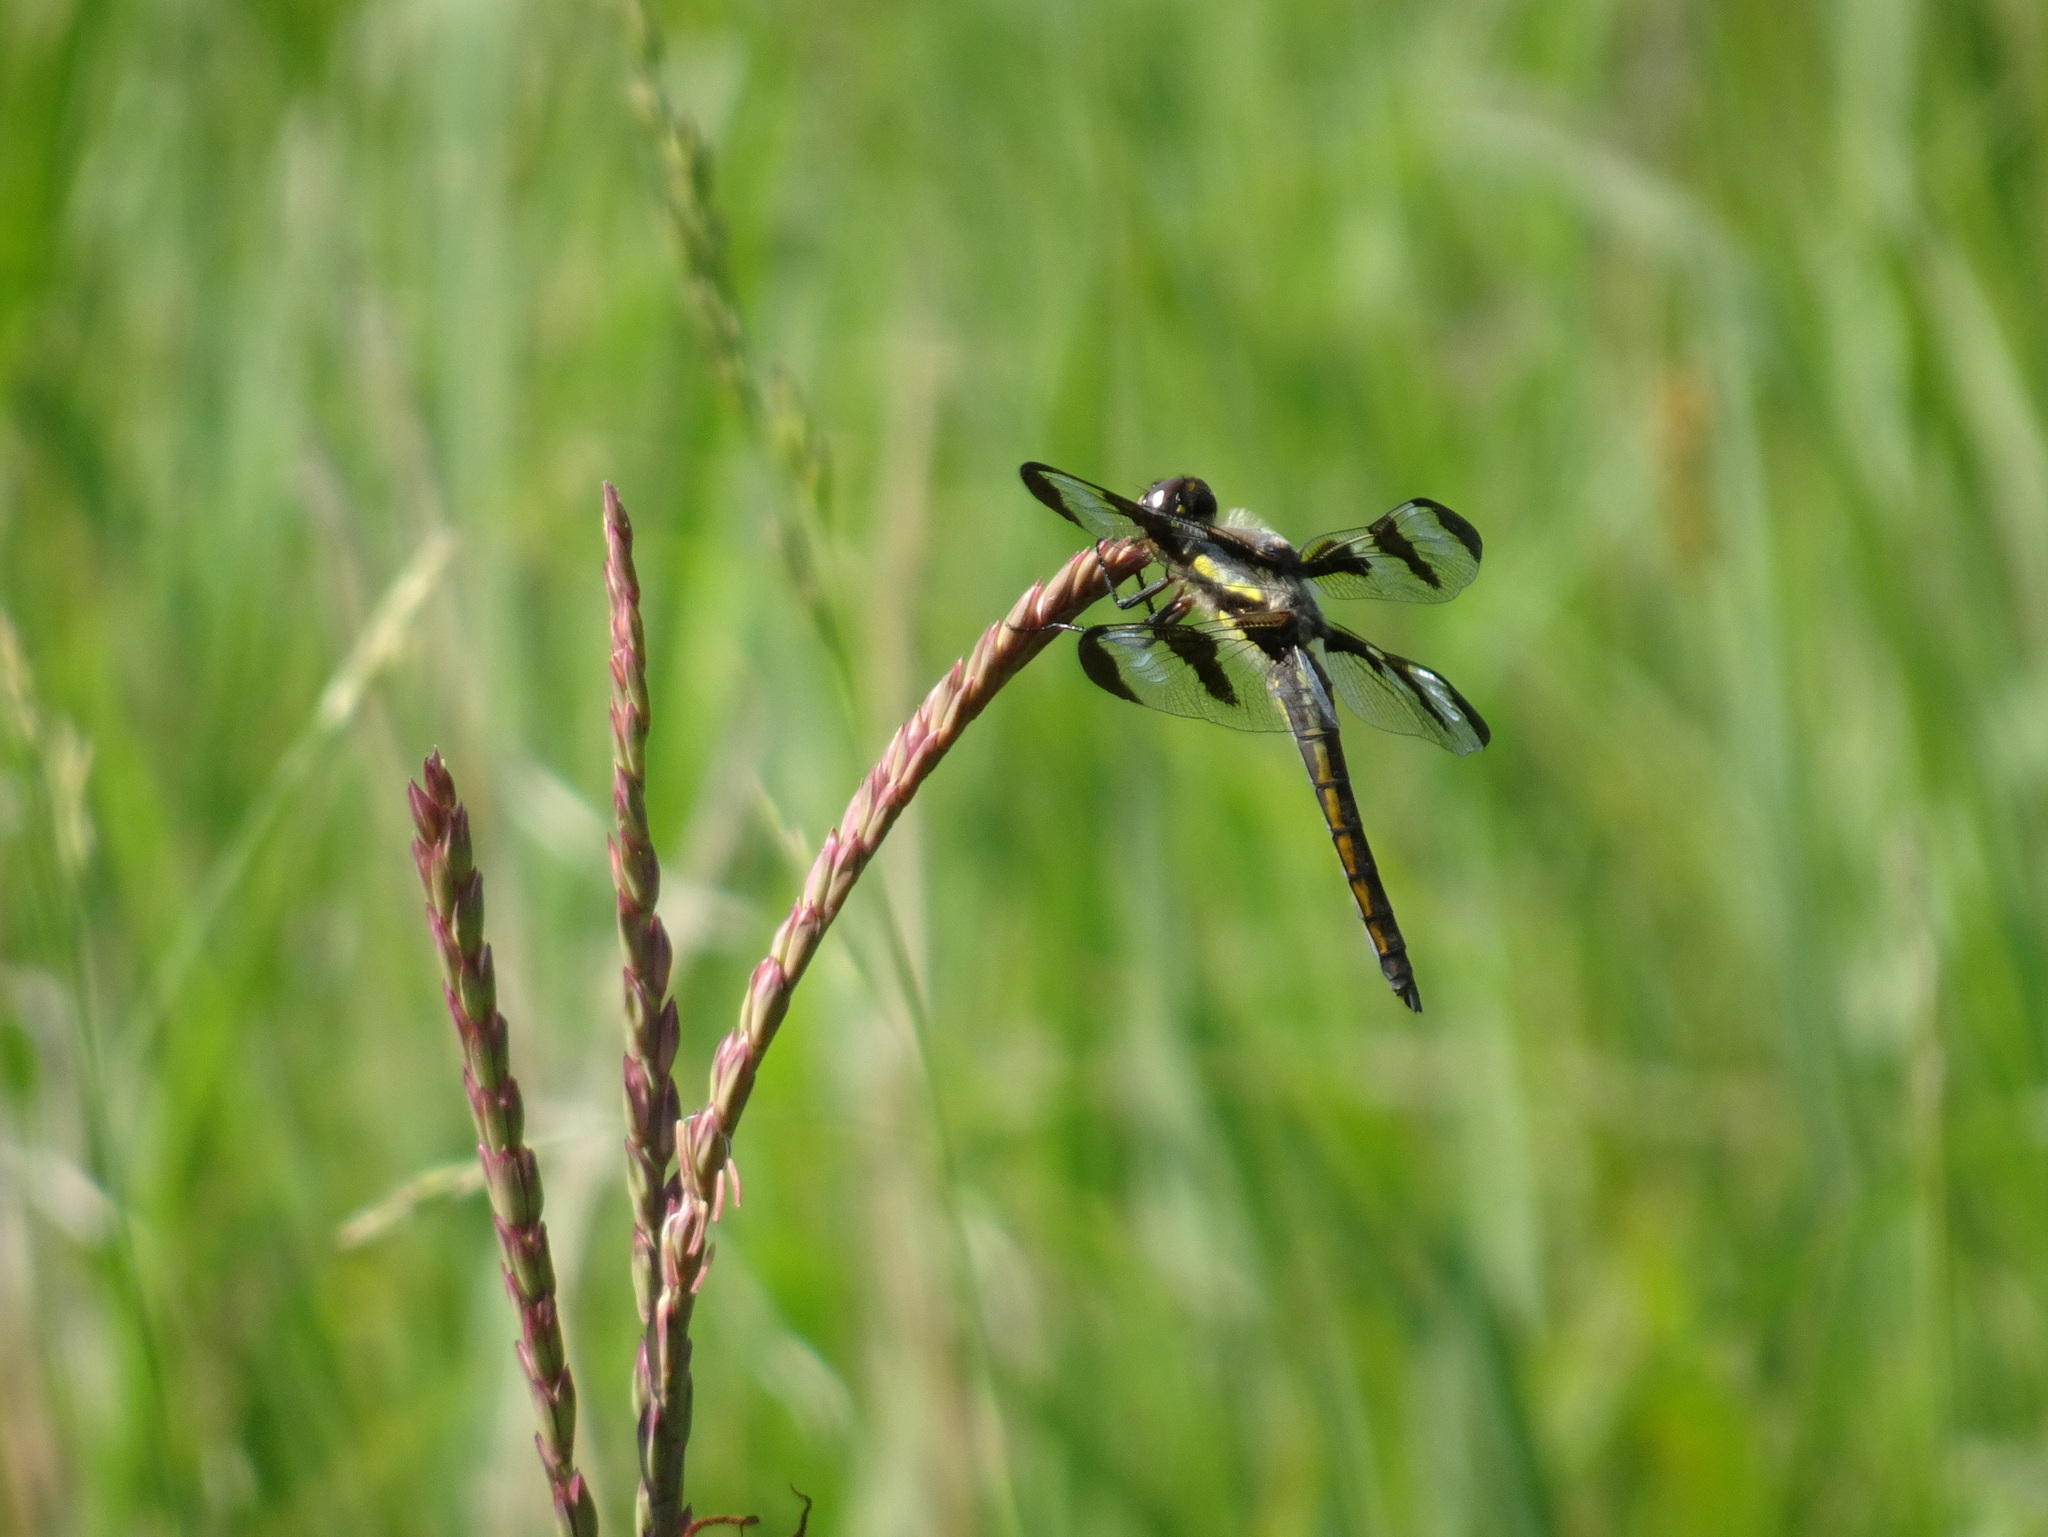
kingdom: Animalia
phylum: Arthropoda
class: Insecta
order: Odonata
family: Libellulidae
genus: Libellula
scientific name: Libellula pulchella
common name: Twelve-spotted skimmer
